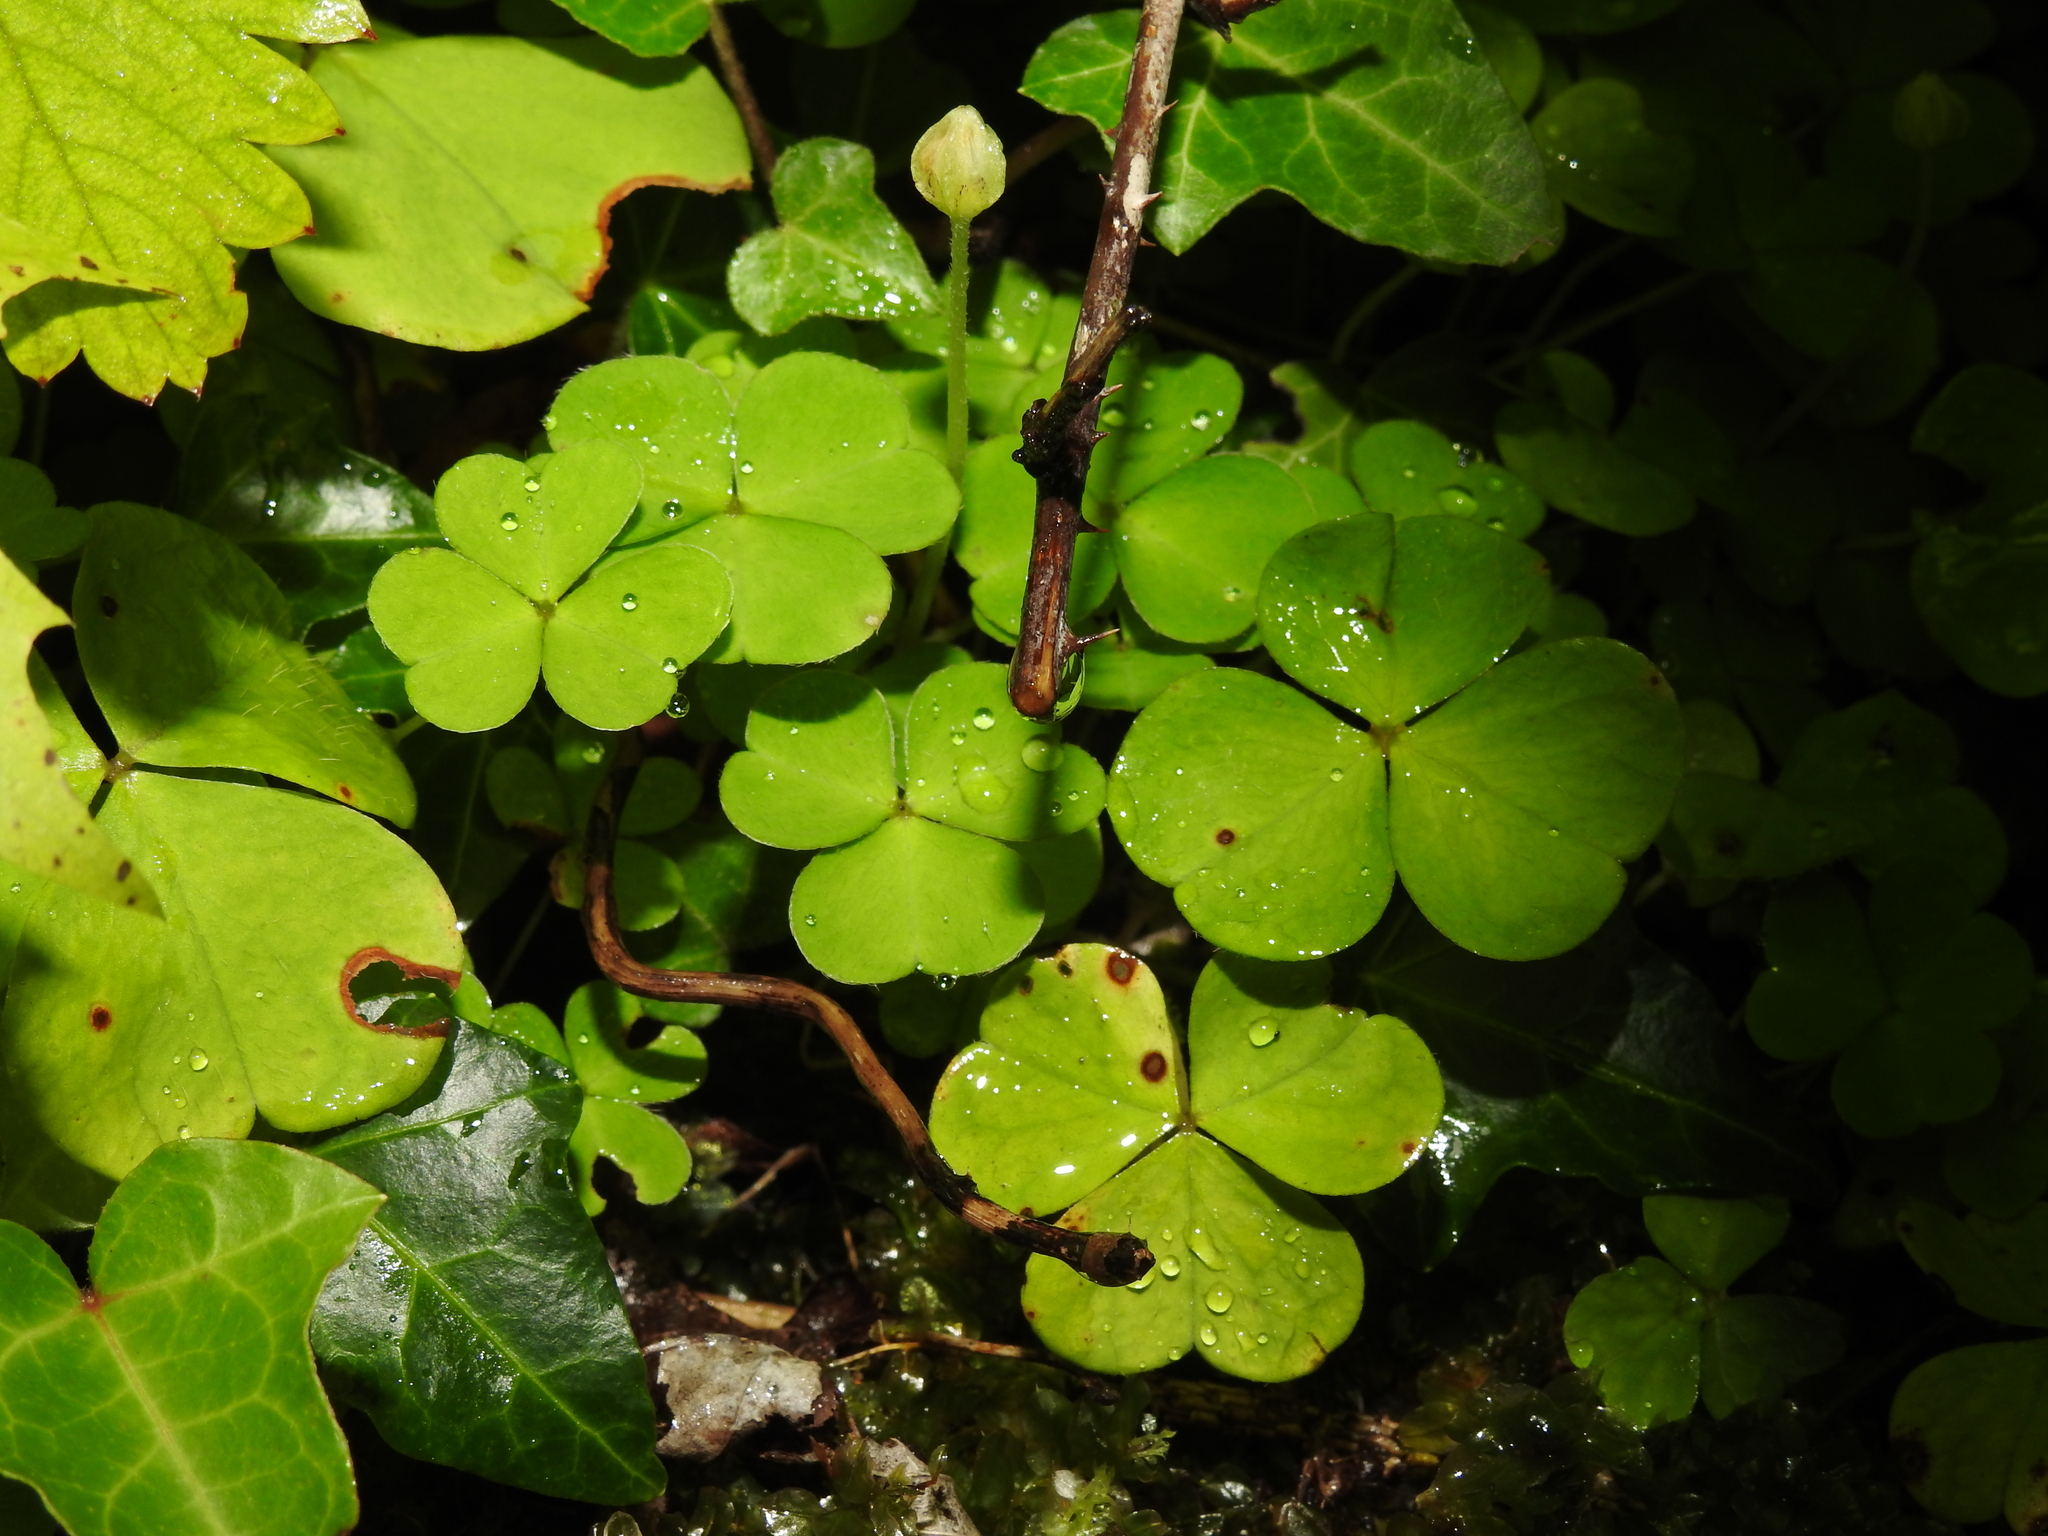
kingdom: Plantae
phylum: Tracheophyta
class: Magnoliopsida
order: Oxalidales
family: Oxalidaceae
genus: Oxalis
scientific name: Oxalis acetosella
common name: Wood-sorrel
